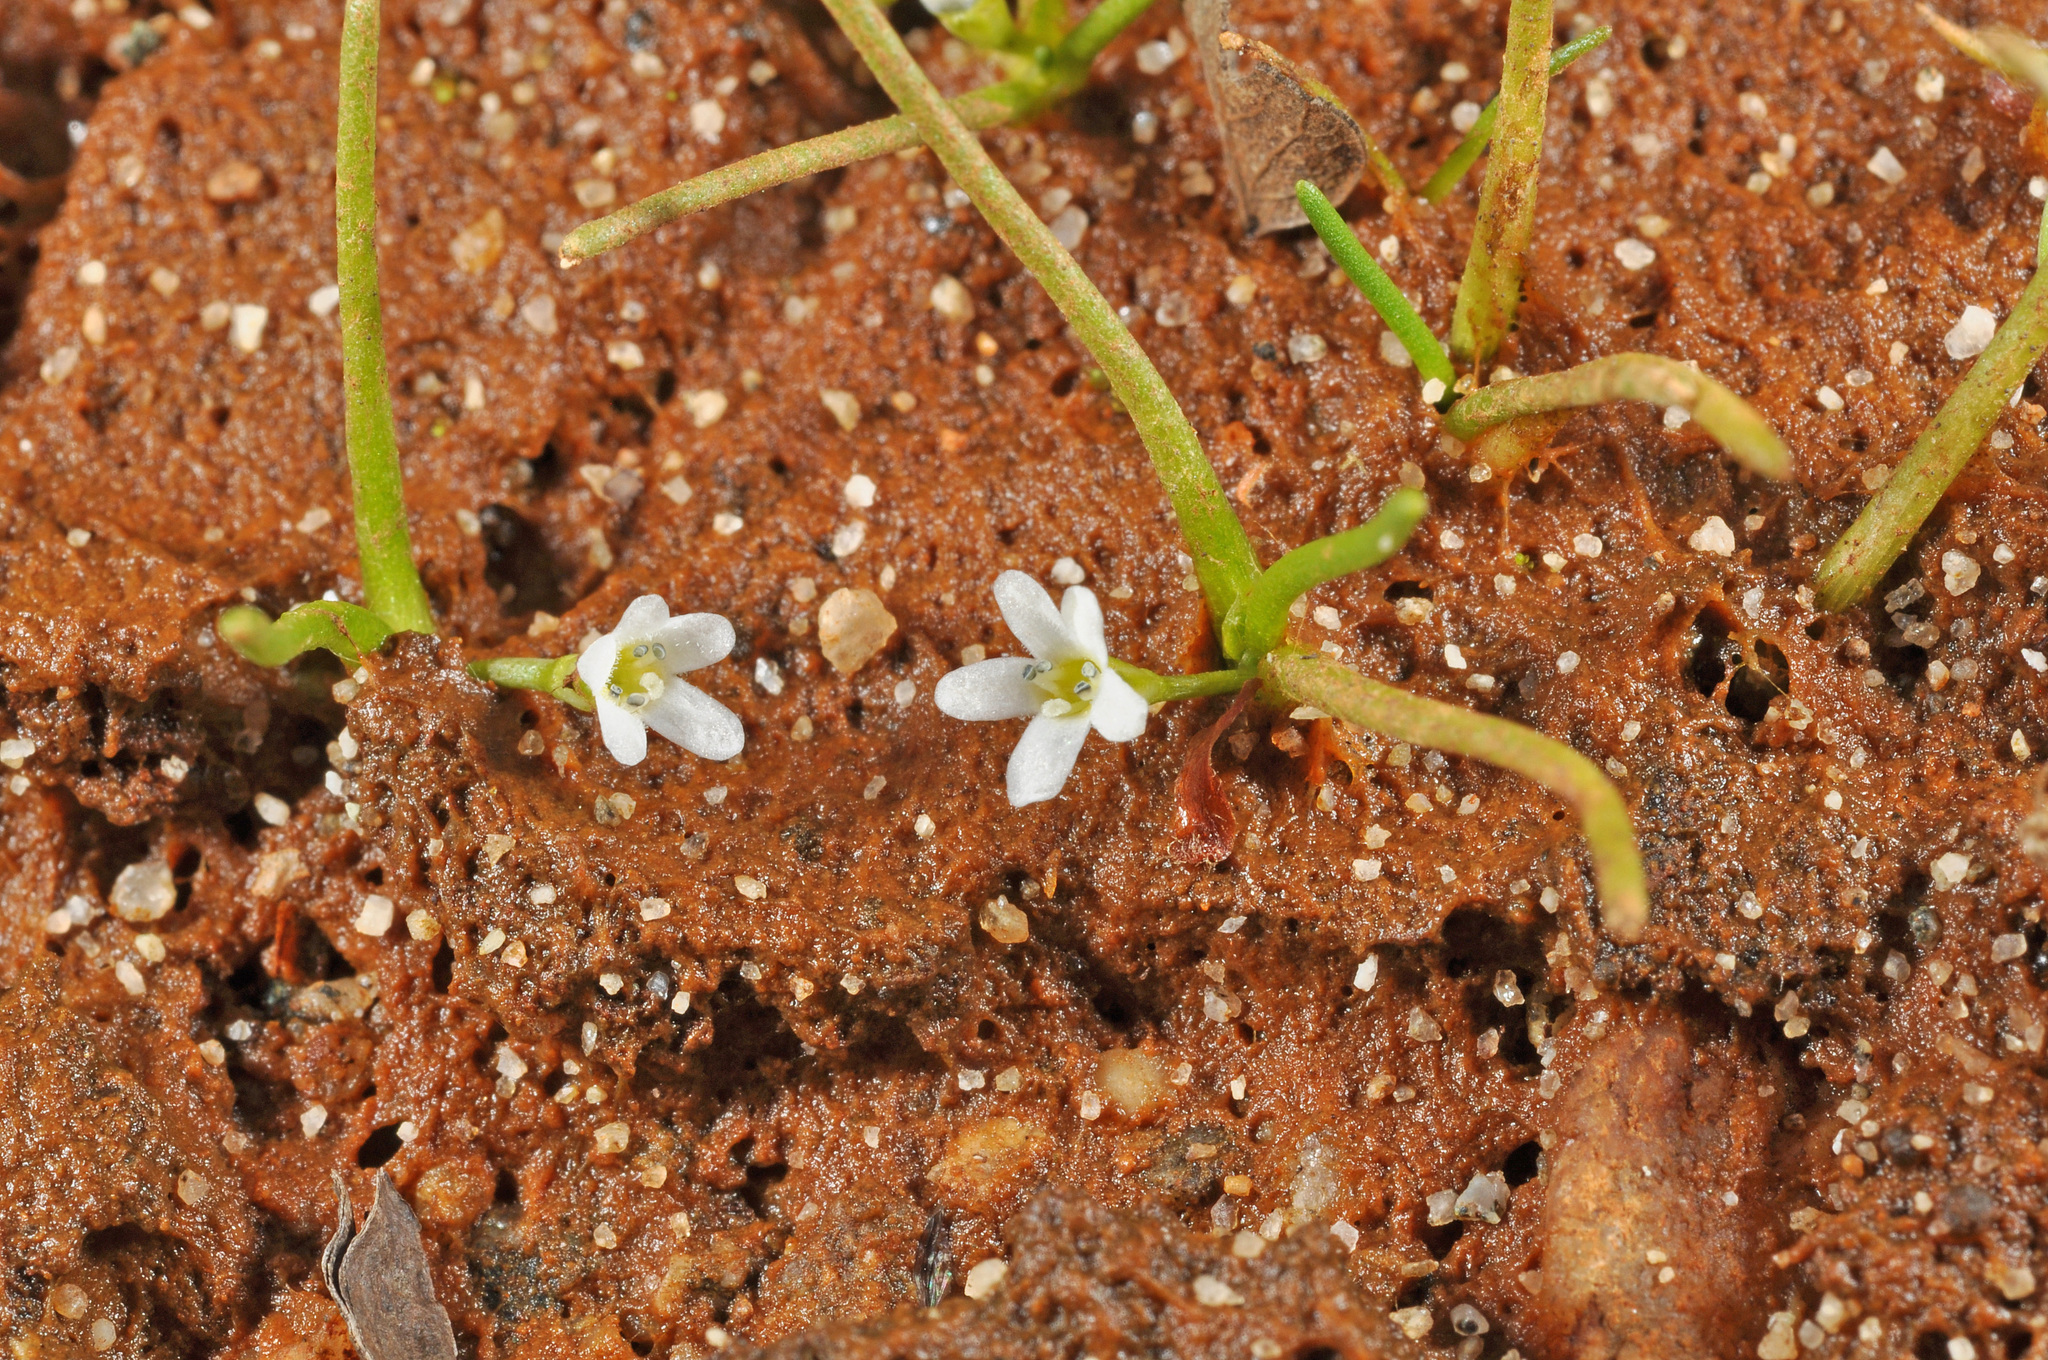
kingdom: Plantae
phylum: Tracheophyta
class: Magnoliopsida
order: Lamiales
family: Scrophulariaceae
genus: Limosella
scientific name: Limosella australis
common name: Welsh mudwort
